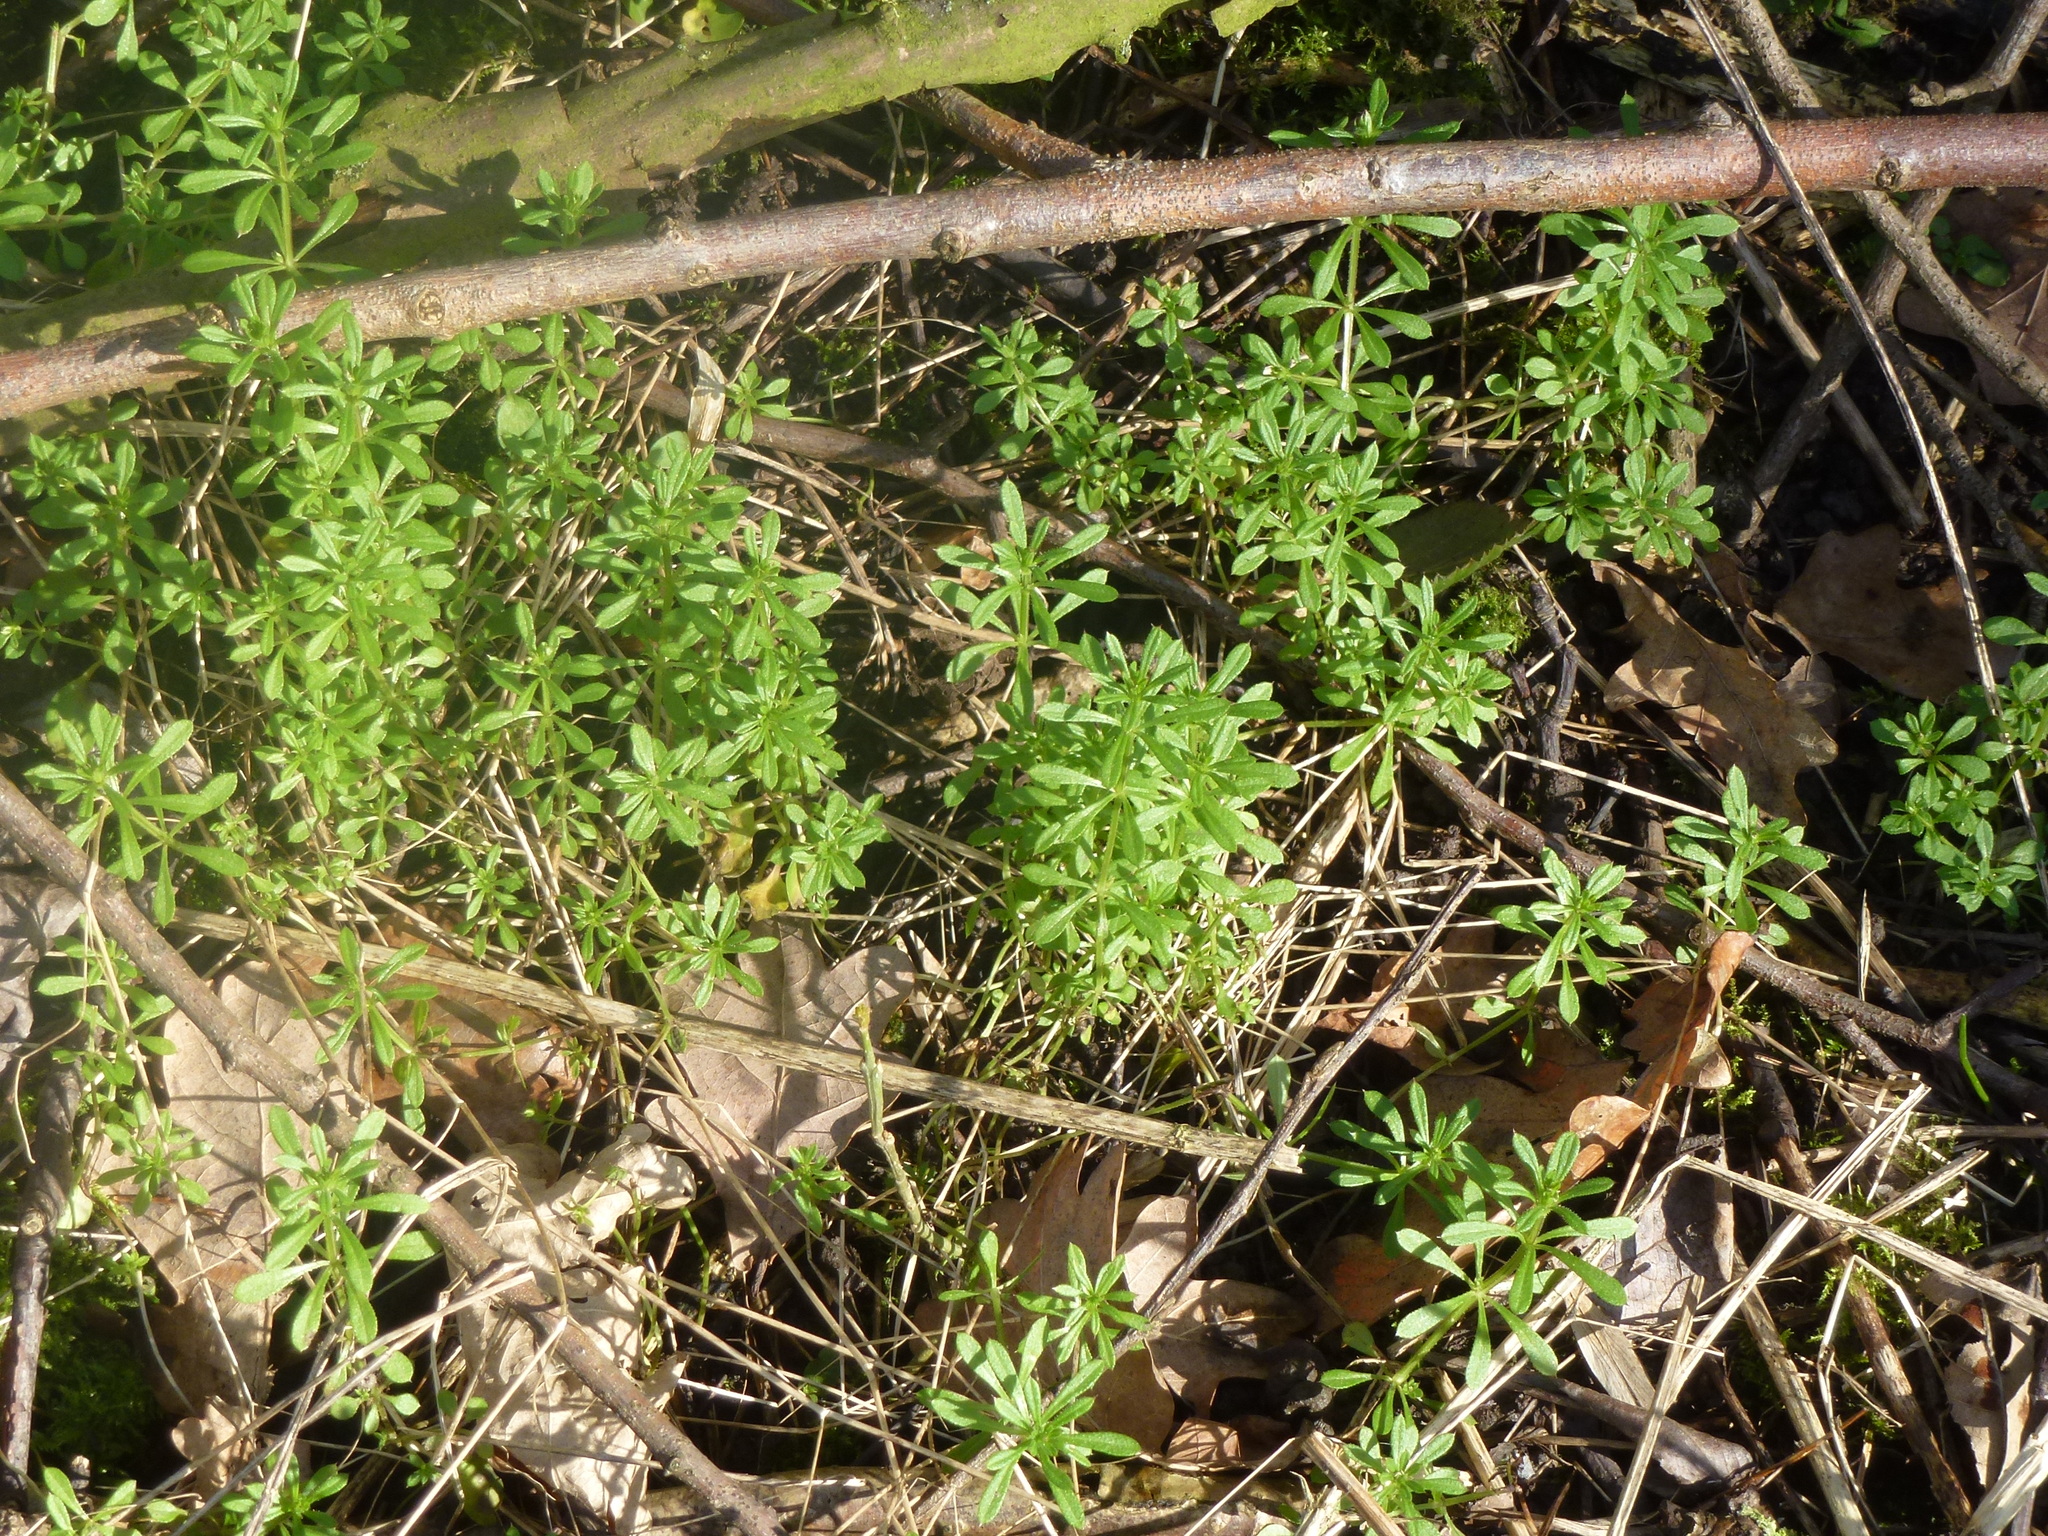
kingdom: Plantae
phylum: Tracheophyta
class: Magnoliopsida
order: Gentianales
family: Rubiaceae
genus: Galium
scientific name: Galium aparine
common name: Cleavers
